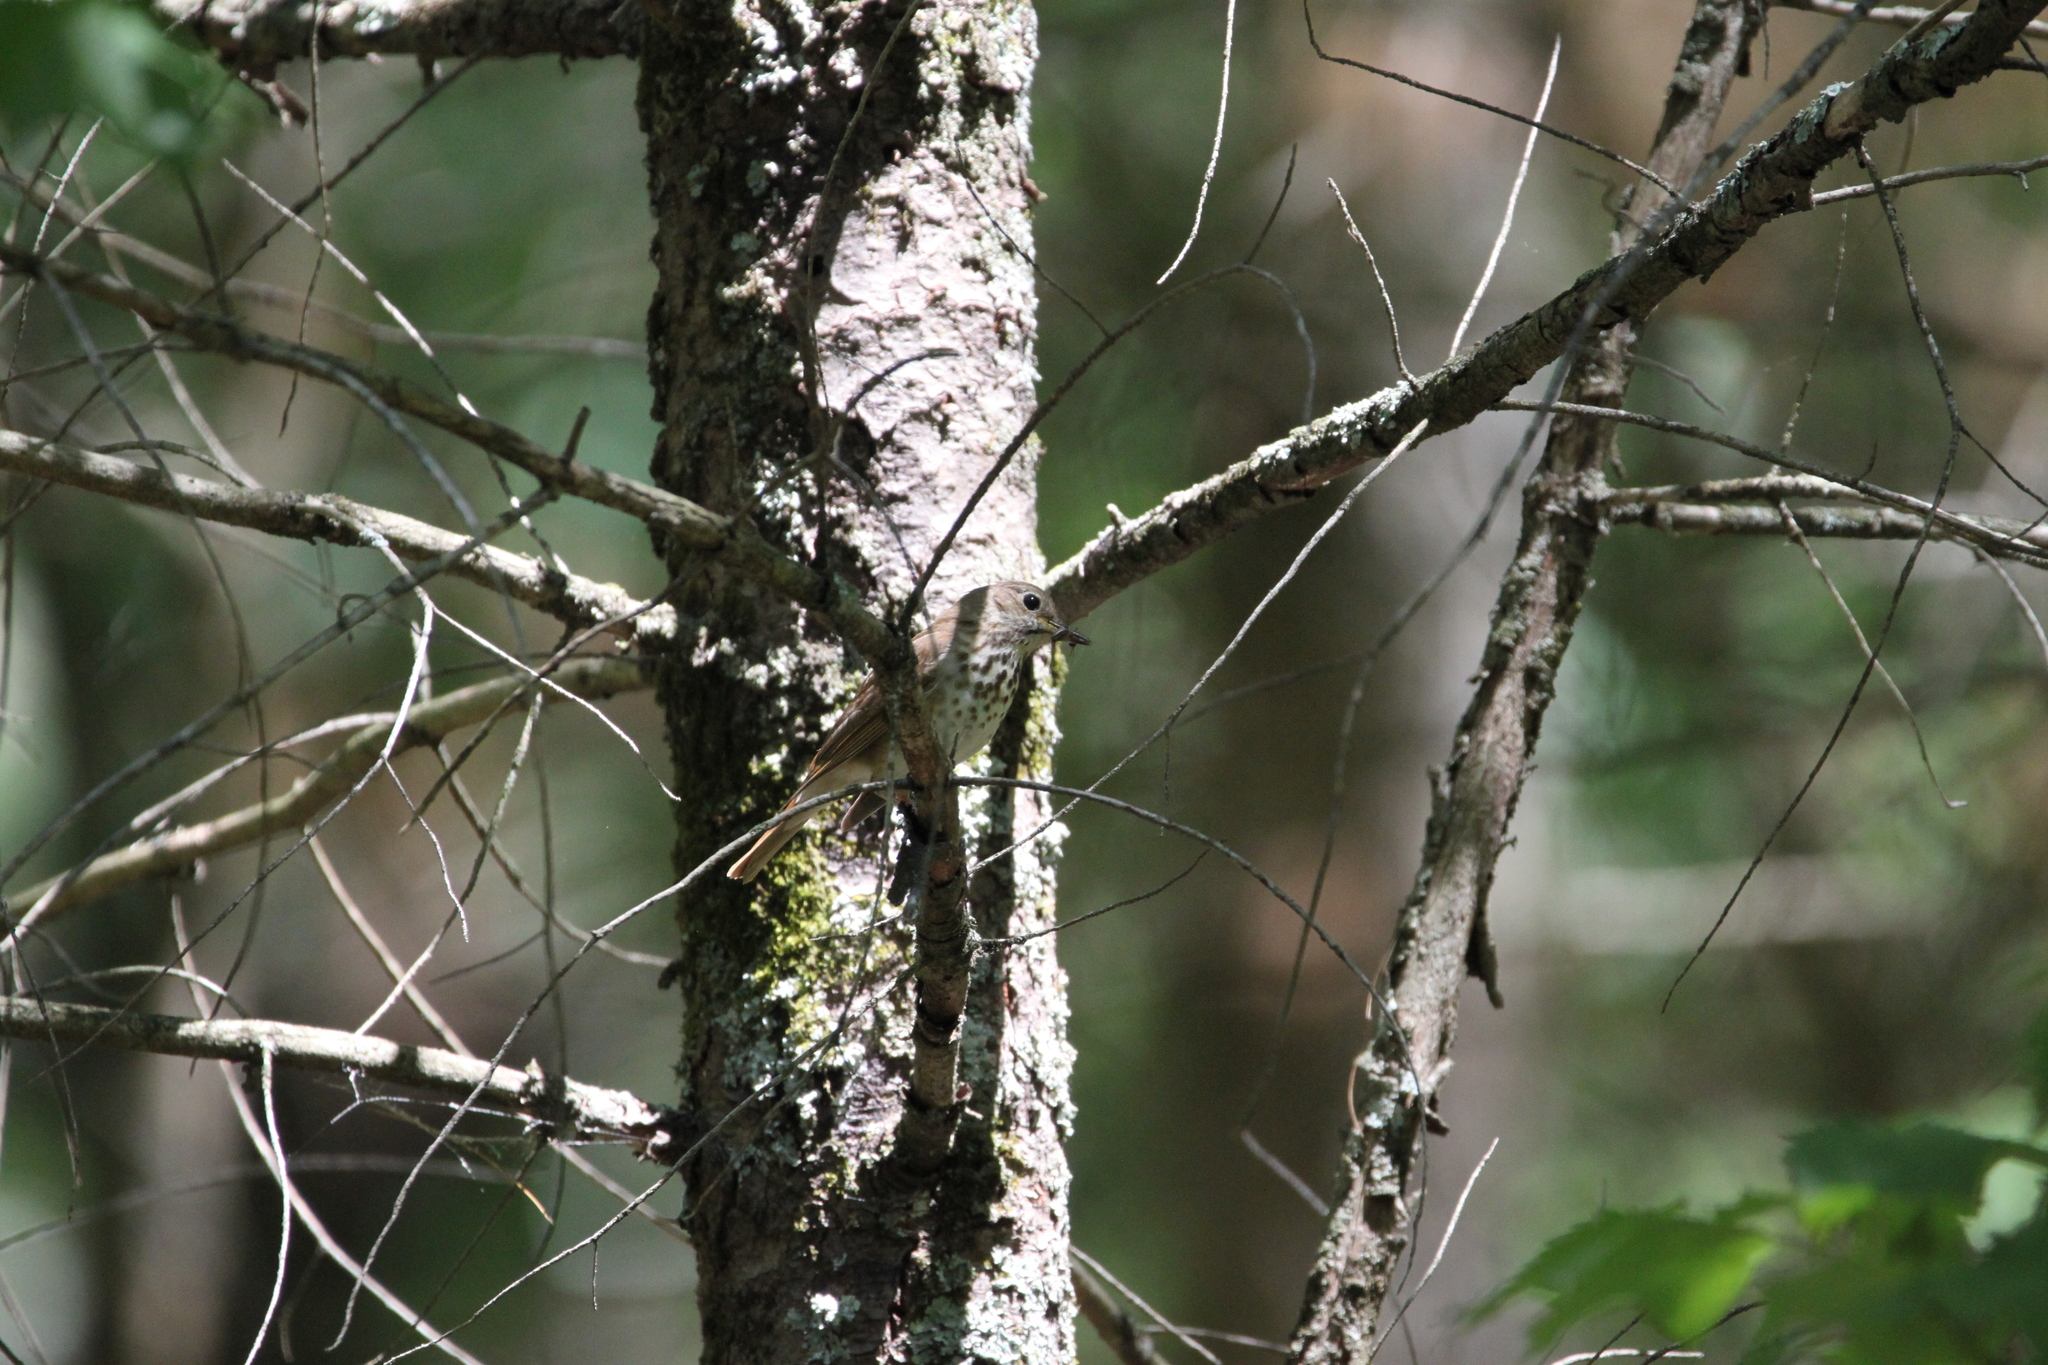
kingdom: Animalia
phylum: Chordata
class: Aves
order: Passeriformes
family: Turdidae
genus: Catharus
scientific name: Catharus guttatus
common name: Hermit thrush
